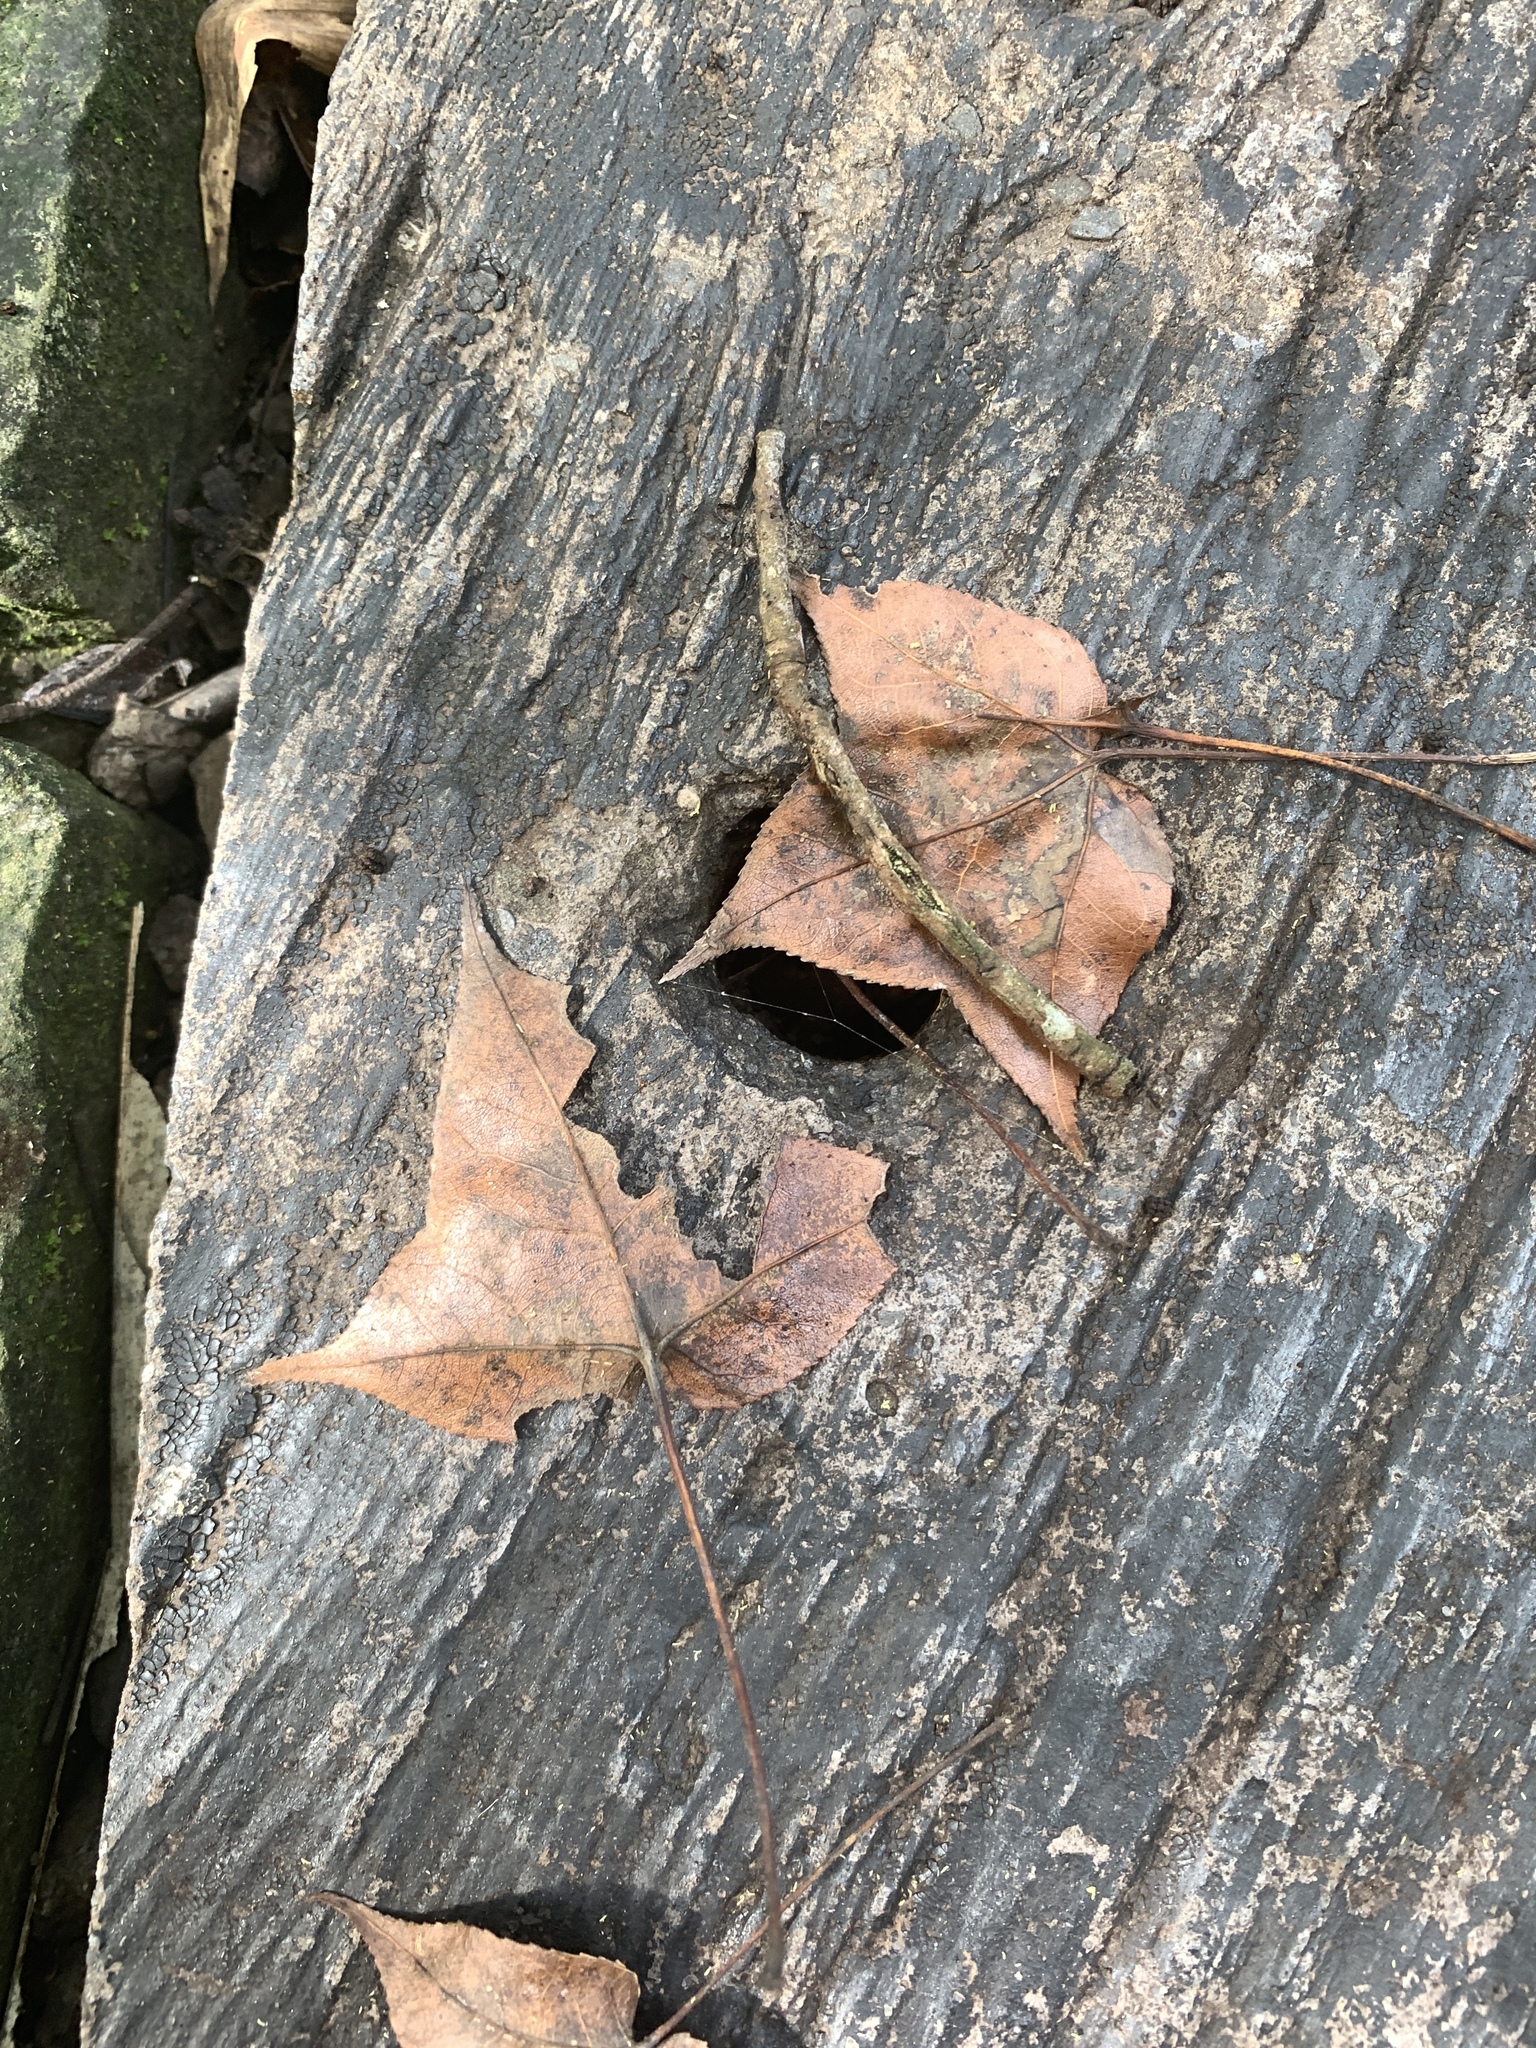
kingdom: Plantae
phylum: Tracheophyta
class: Magnoliopsida
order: Saxifragales
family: Altingiaceae
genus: Liquidambar
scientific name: Liquidambar formosana
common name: Chinese sweet gum
